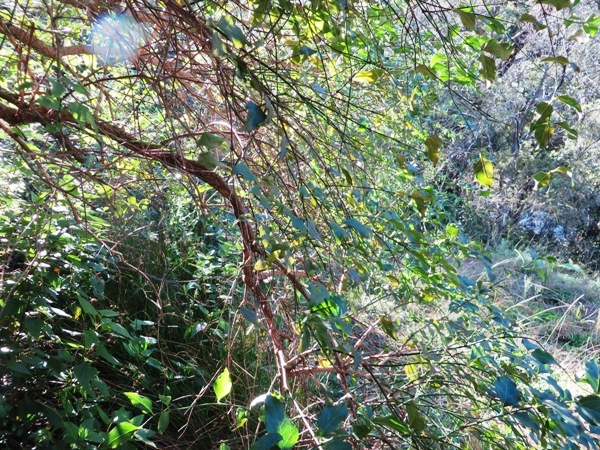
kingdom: Plantae
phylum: Tracheophyta
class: Magnoliopsida
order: Lamiales
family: Stilbaceae
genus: Halleria
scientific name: Halleria lucida
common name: Tree fuschia
